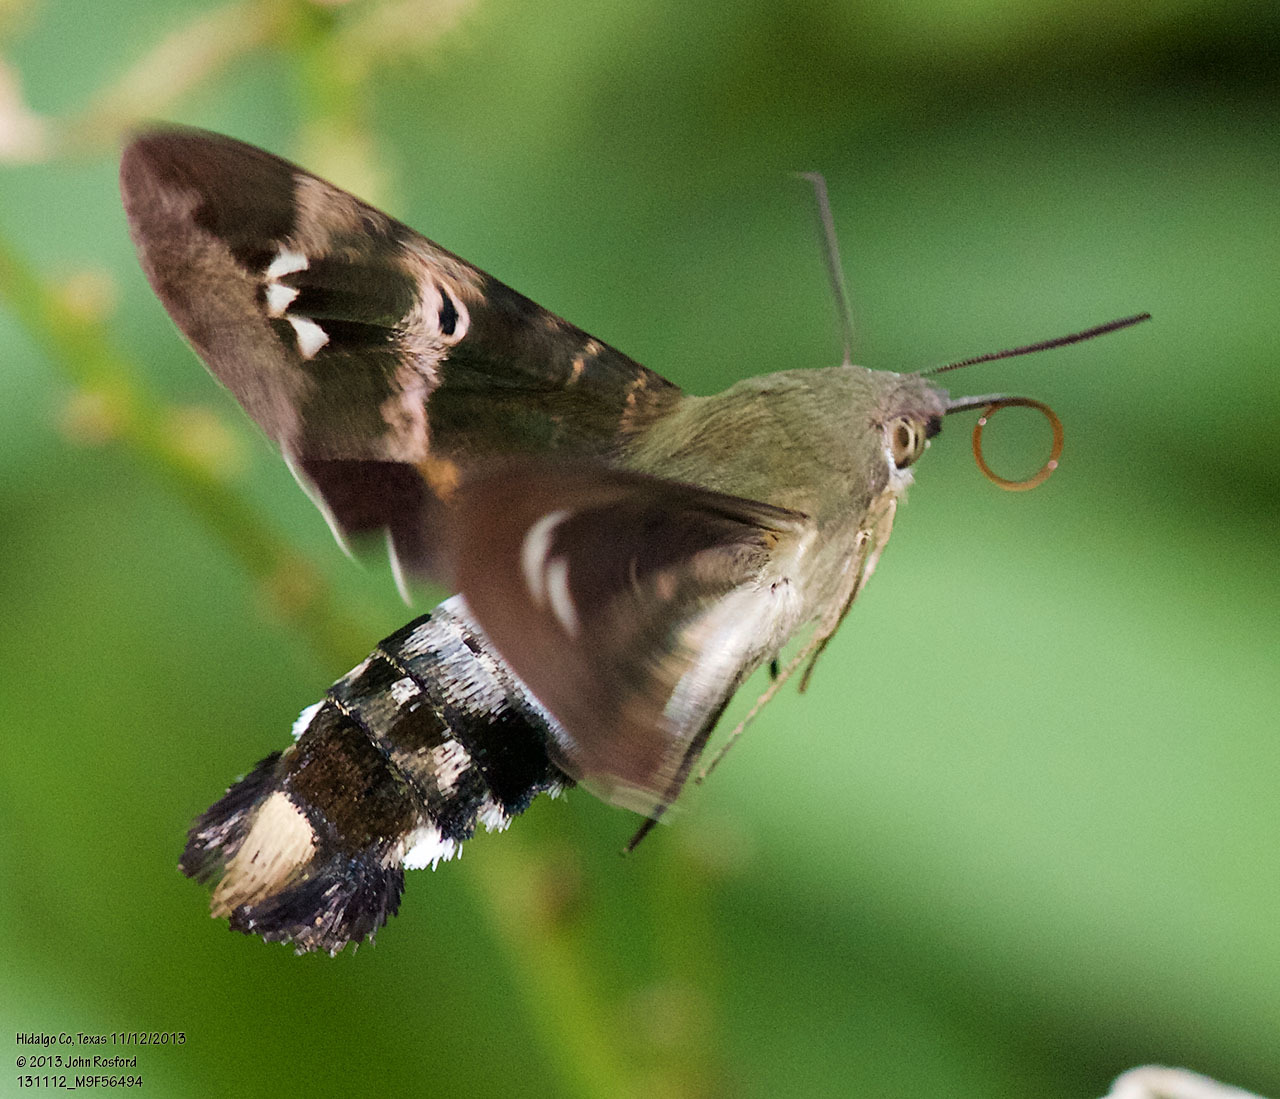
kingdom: Animalia
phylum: Arthropoda
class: Insecta
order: Lepidoptera
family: Sphingidae
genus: Aellopos
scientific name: Aellopos clavipes
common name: Clavipes sphinx
